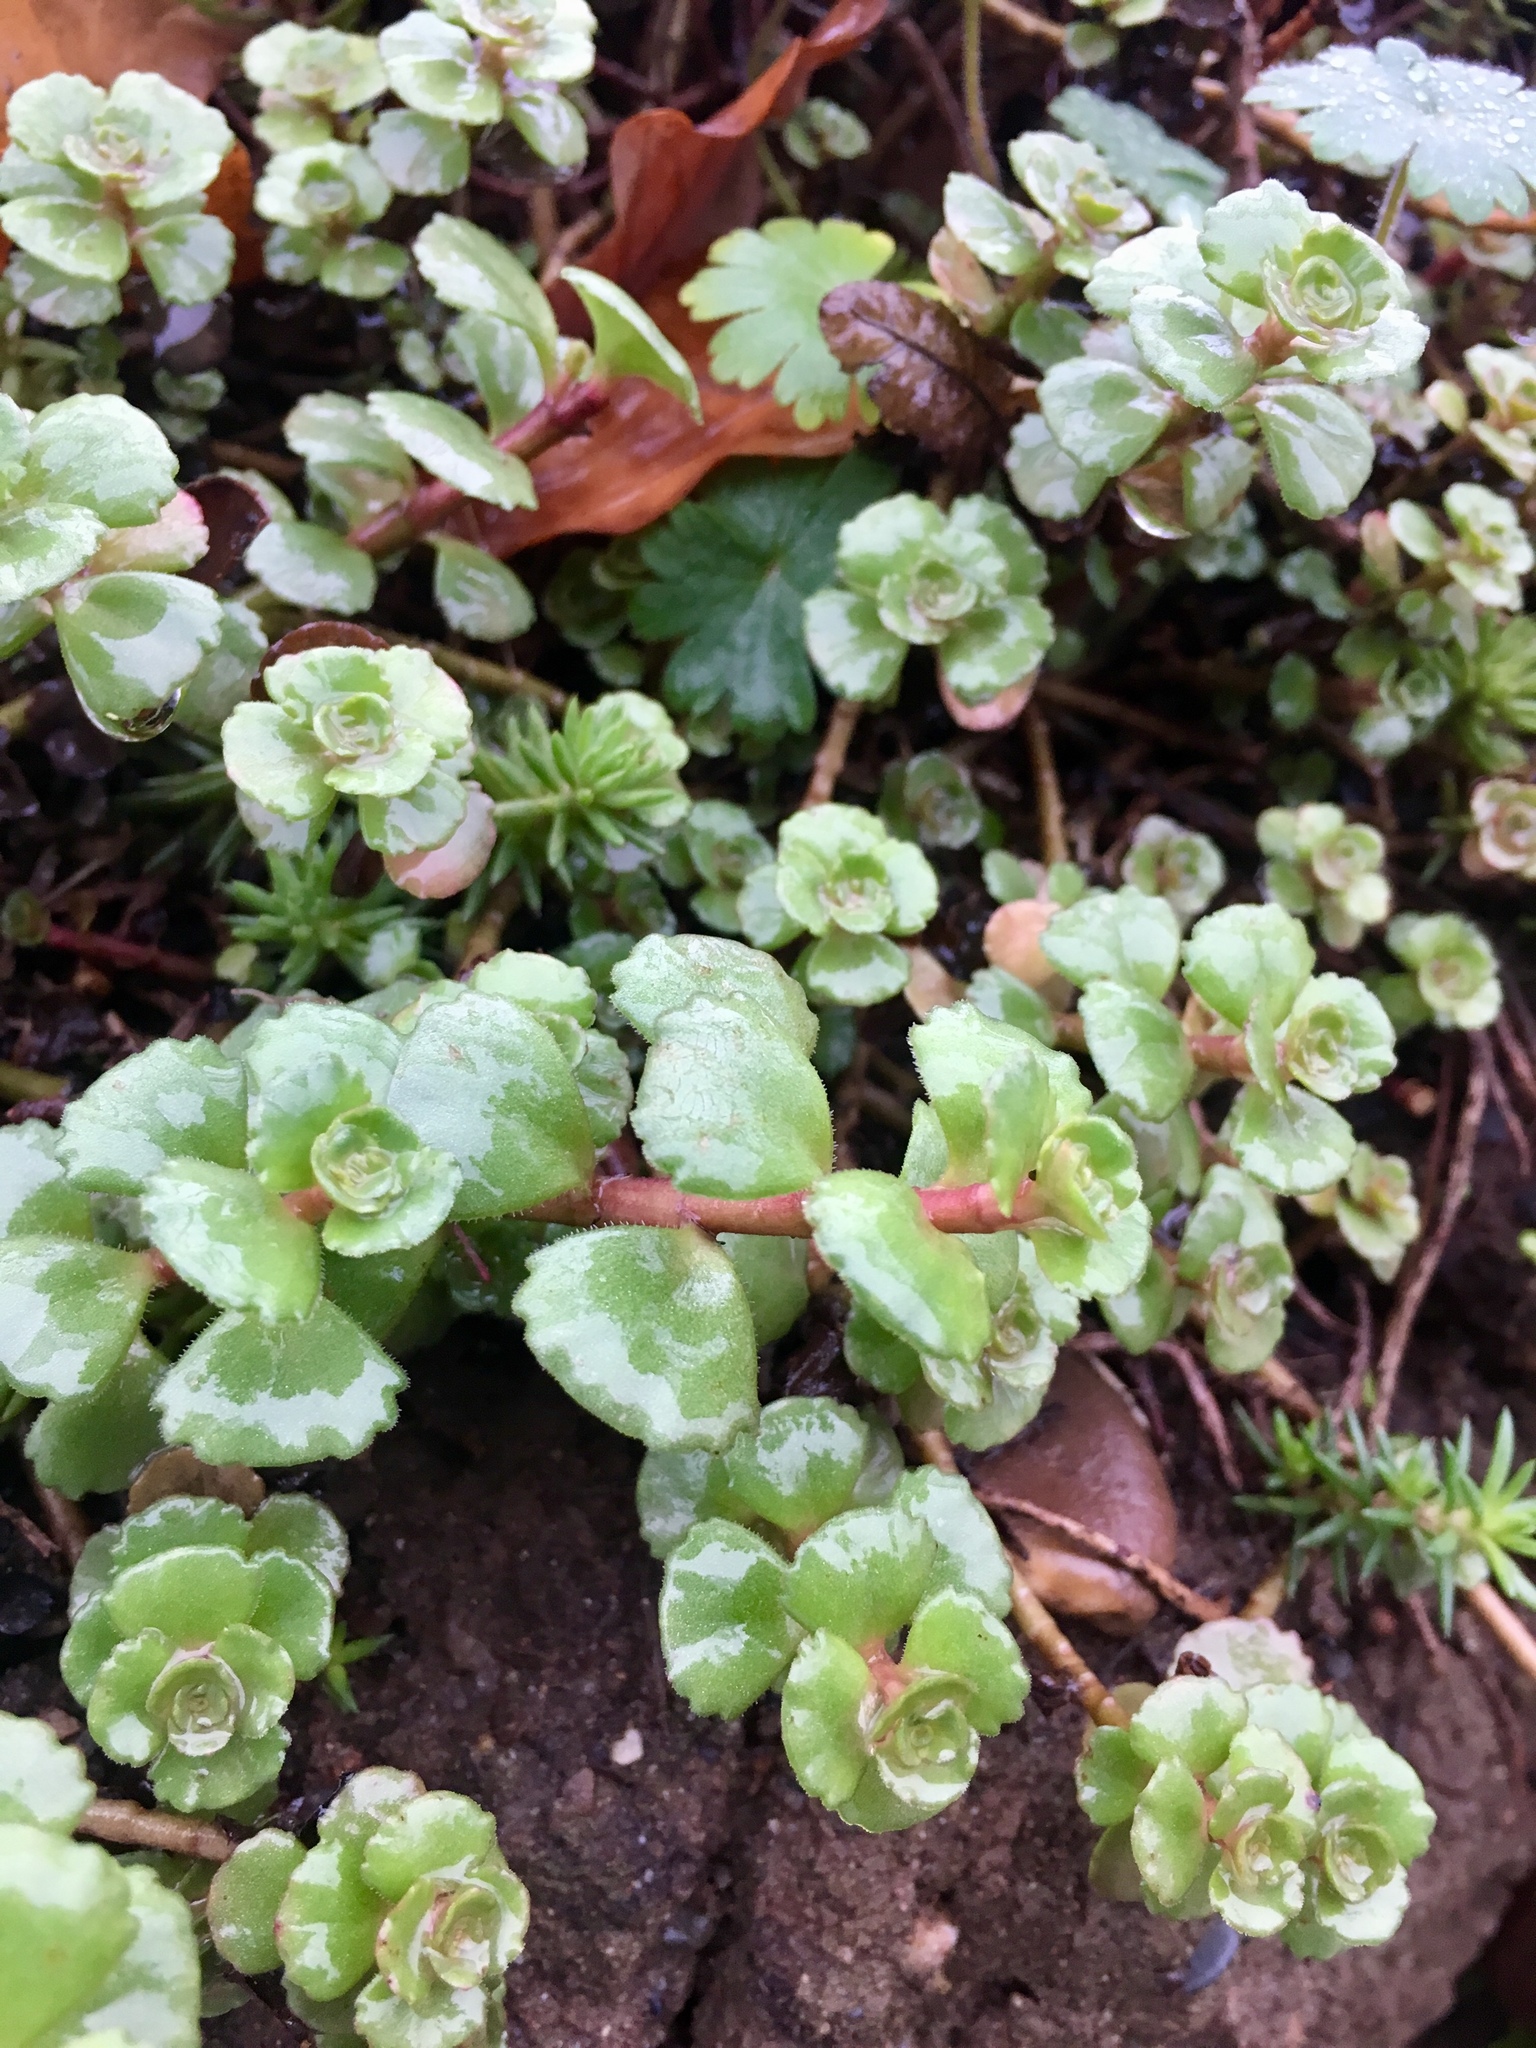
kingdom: Plantae
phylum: Tracheophyta
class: Magnoliopsida
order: Saxifragales
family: Crassulaceae
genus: Phedimus
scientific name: Phedimus spurius
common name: Caucasian stonecrop
